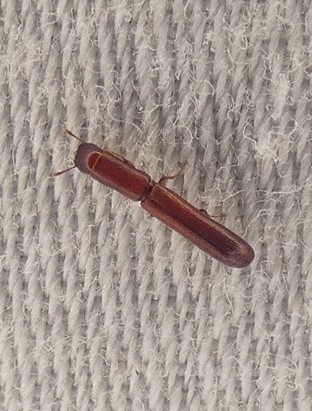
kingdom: Animalia
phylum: Arthropoda
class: Insecta
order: Coleoptera
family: Zopheridae
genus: Nematidium
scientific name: Nematidium filiforme
